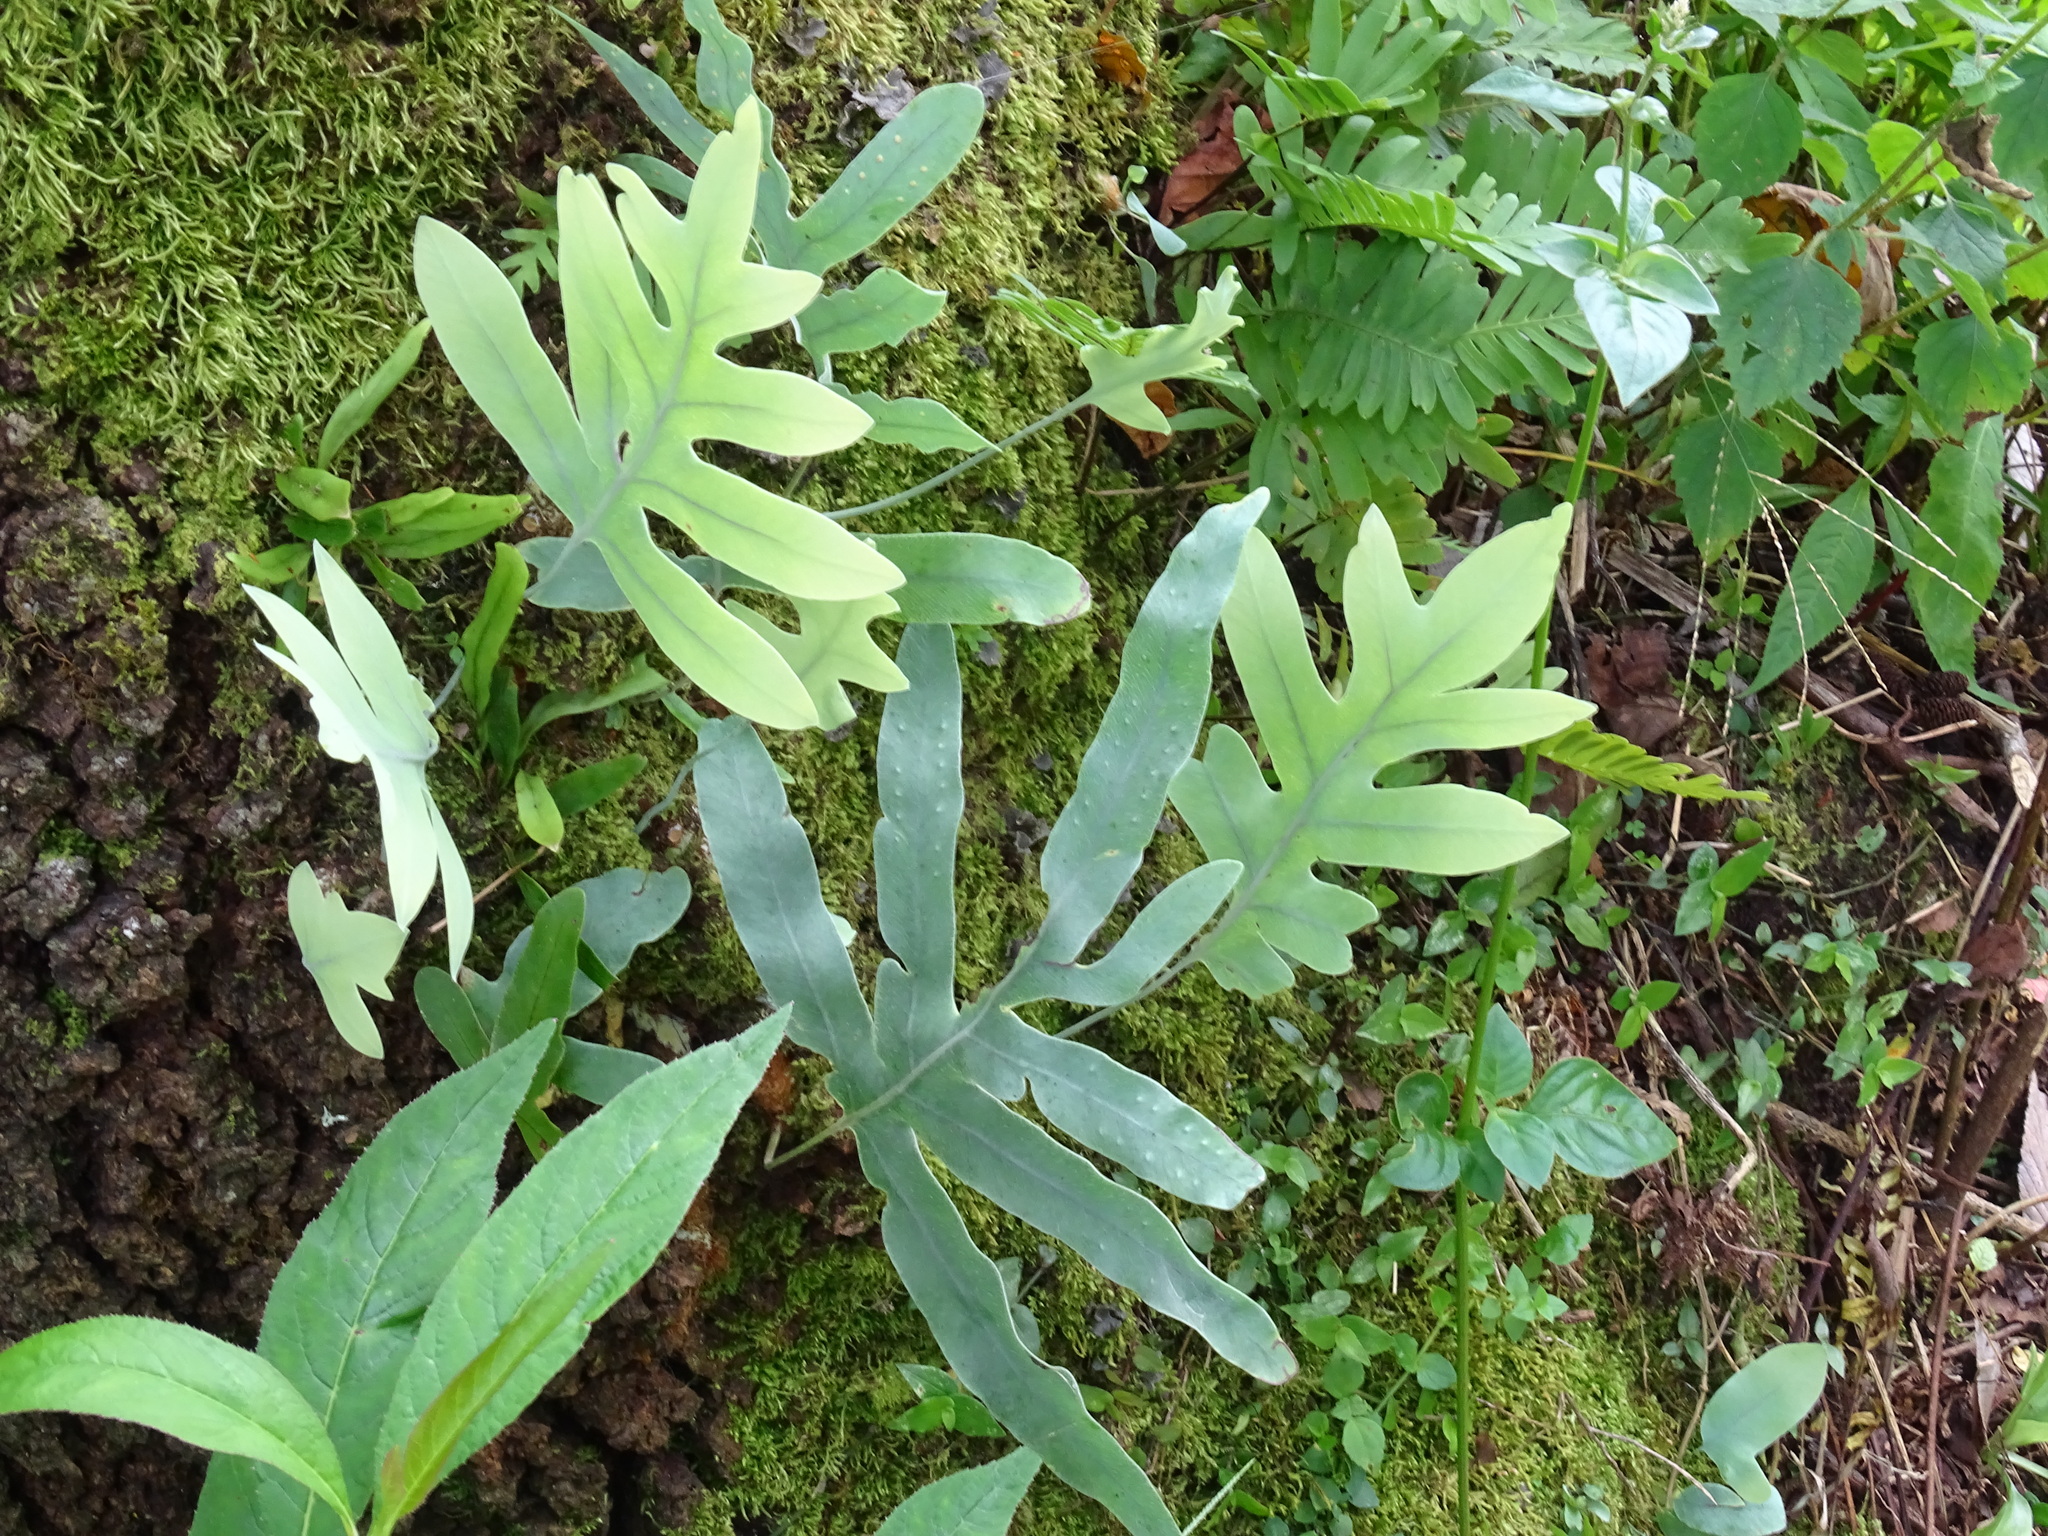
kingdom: Plantae
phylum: Tracheophyta
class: Polypodiopsida
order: Polypodiales
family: Polypodiaceae
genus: Phlebodium
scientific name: Phlebodium pseudoaureum
